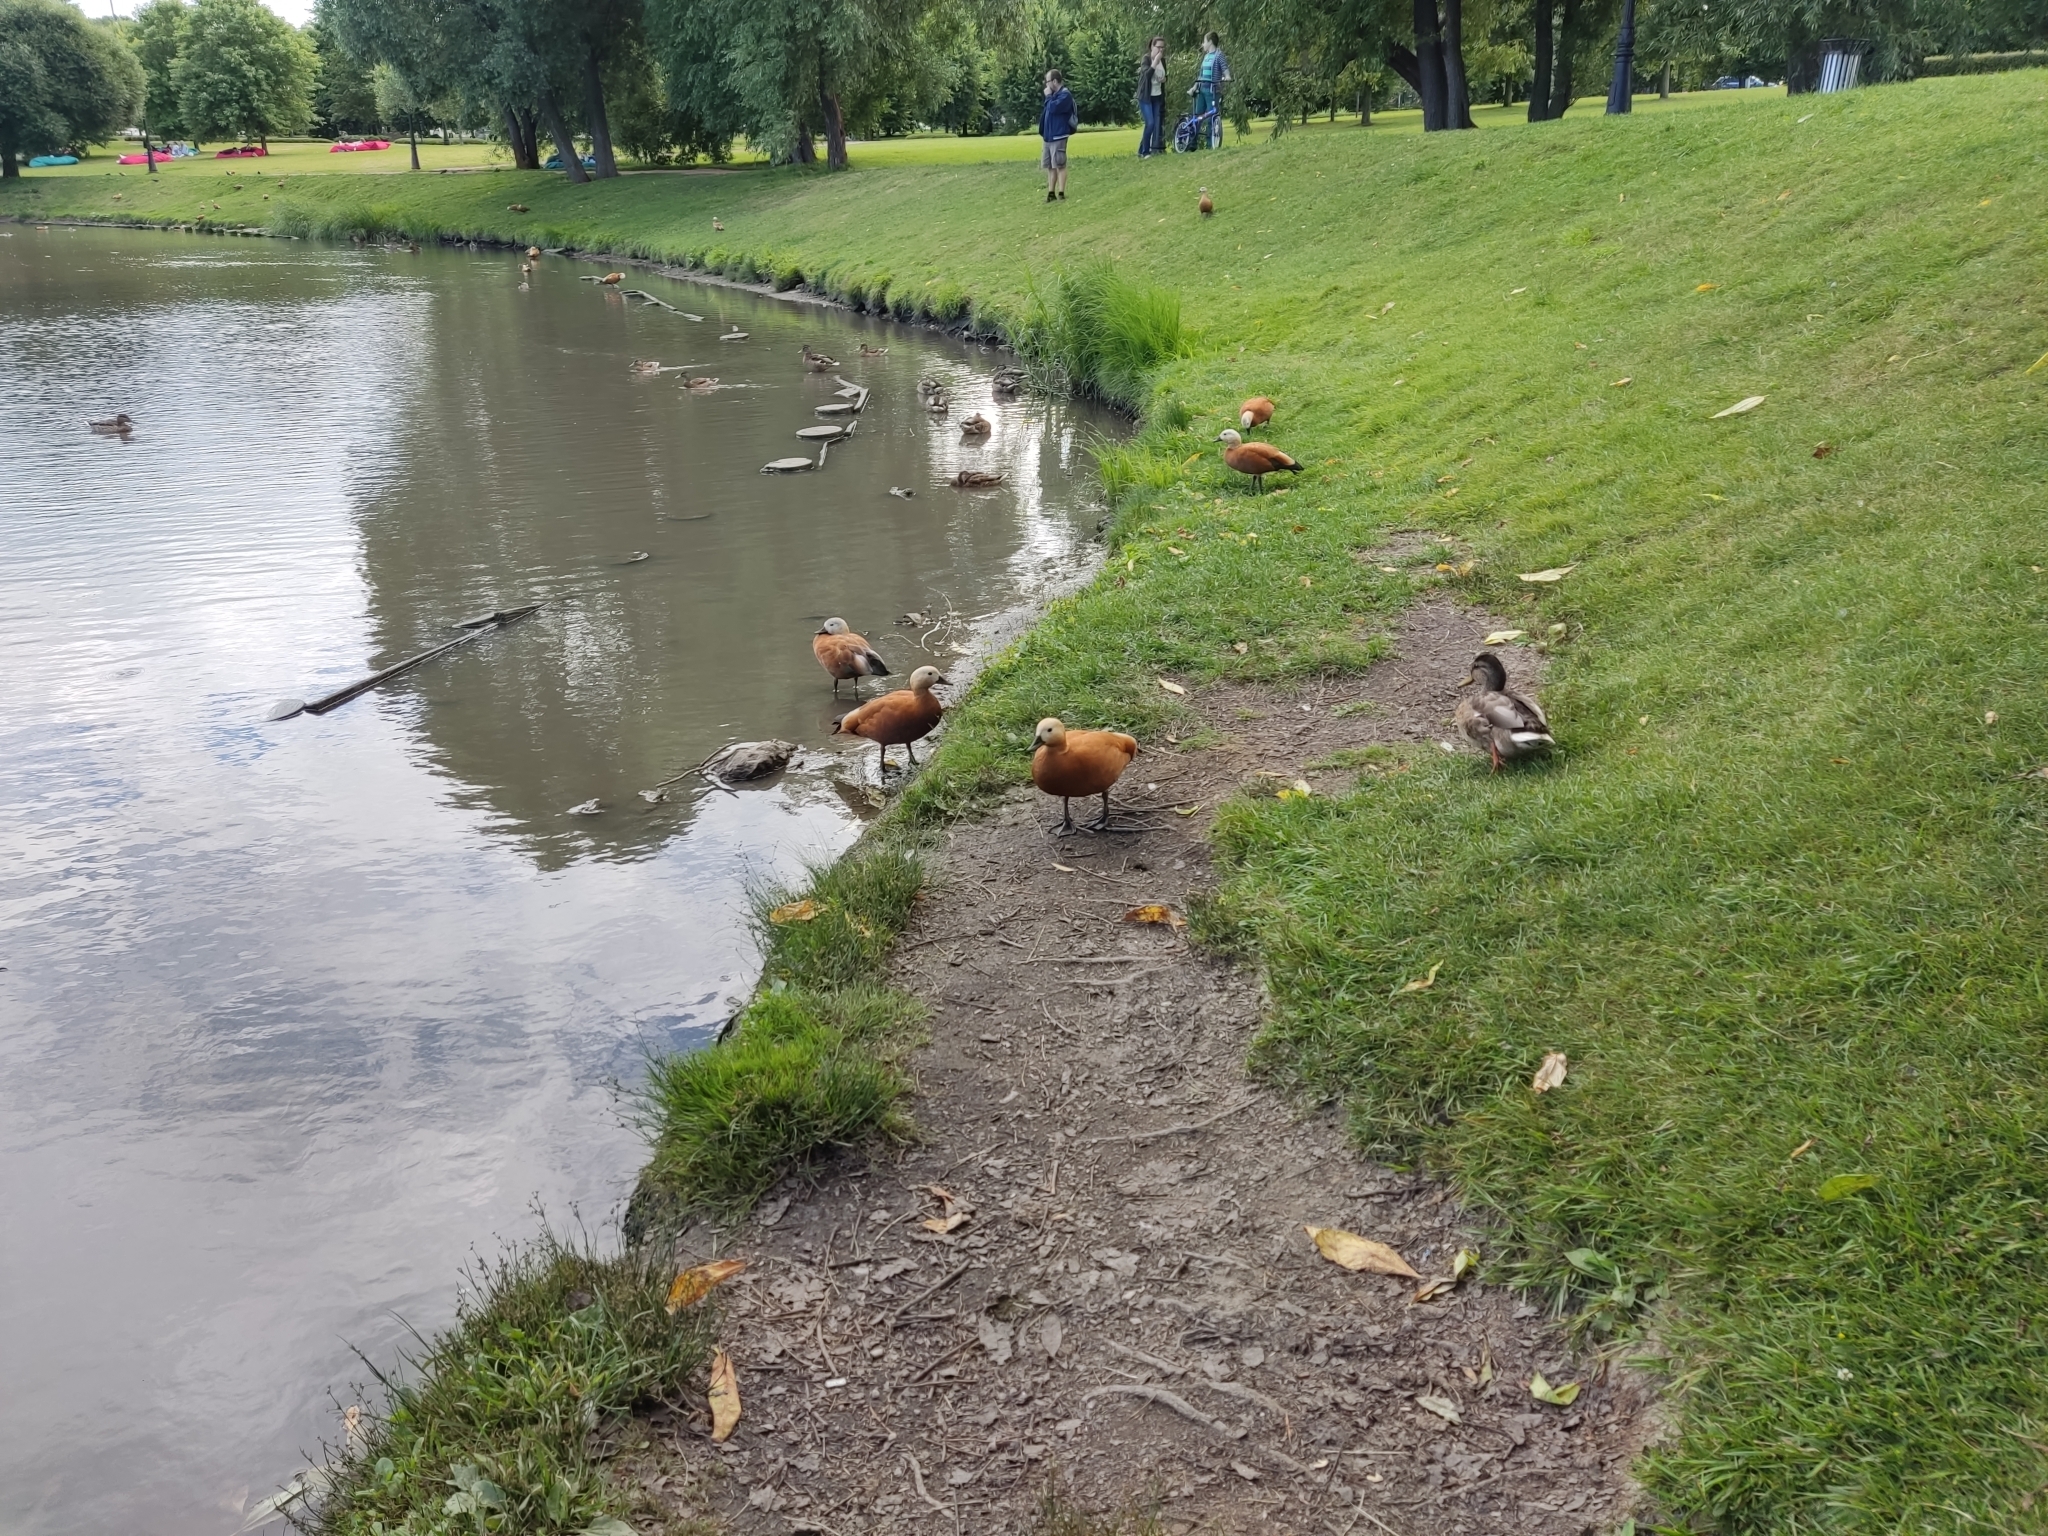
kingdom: Animalia
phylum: Chordata
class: Aves
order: Anseriformes
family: Anatidae
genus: Tadorna
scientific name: Tadorna ferruginea
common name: Ruddy shelduck
